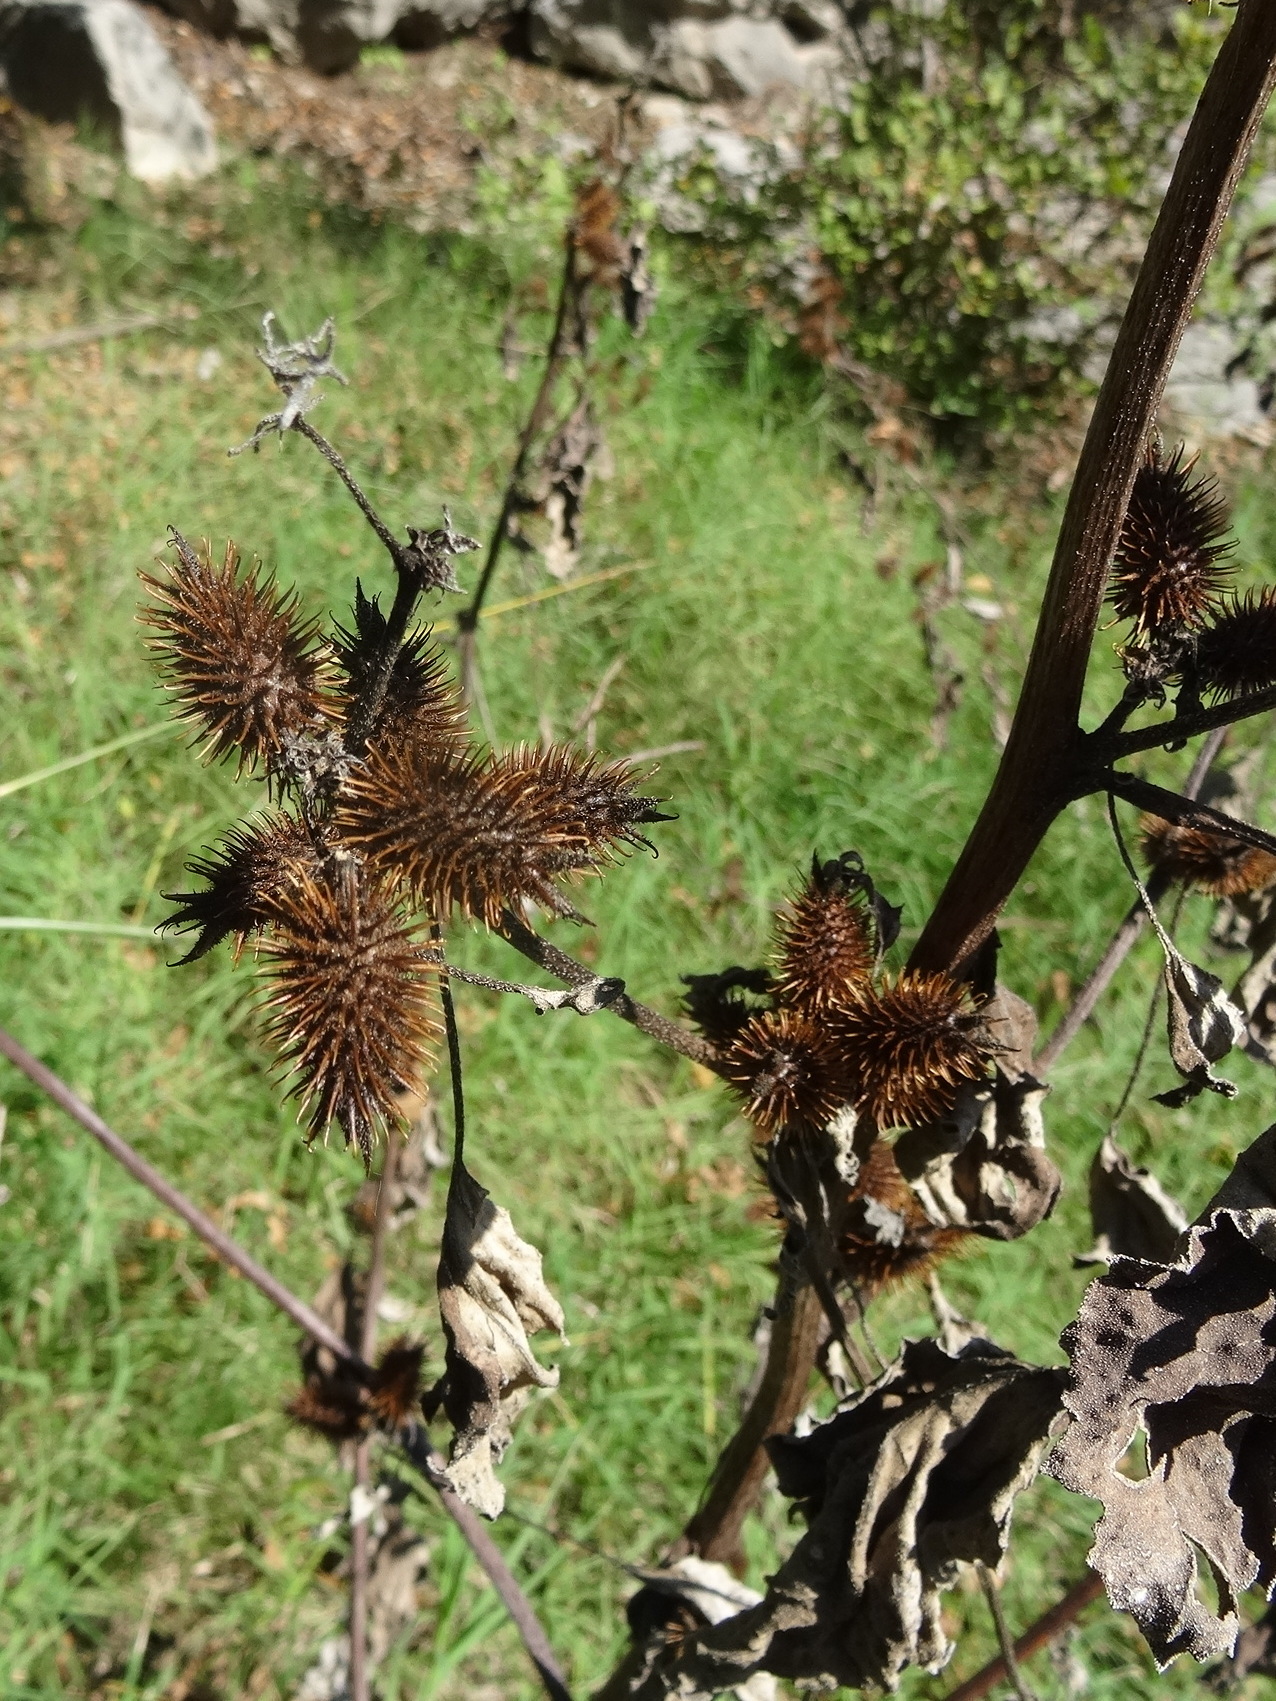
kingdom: Plantae
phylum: Tracheophyta
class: Magnoliopsida
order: Asterales
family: Asteraceae
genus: Xanthium
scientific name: Xanthium strumarium
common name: Rough cocklebur
